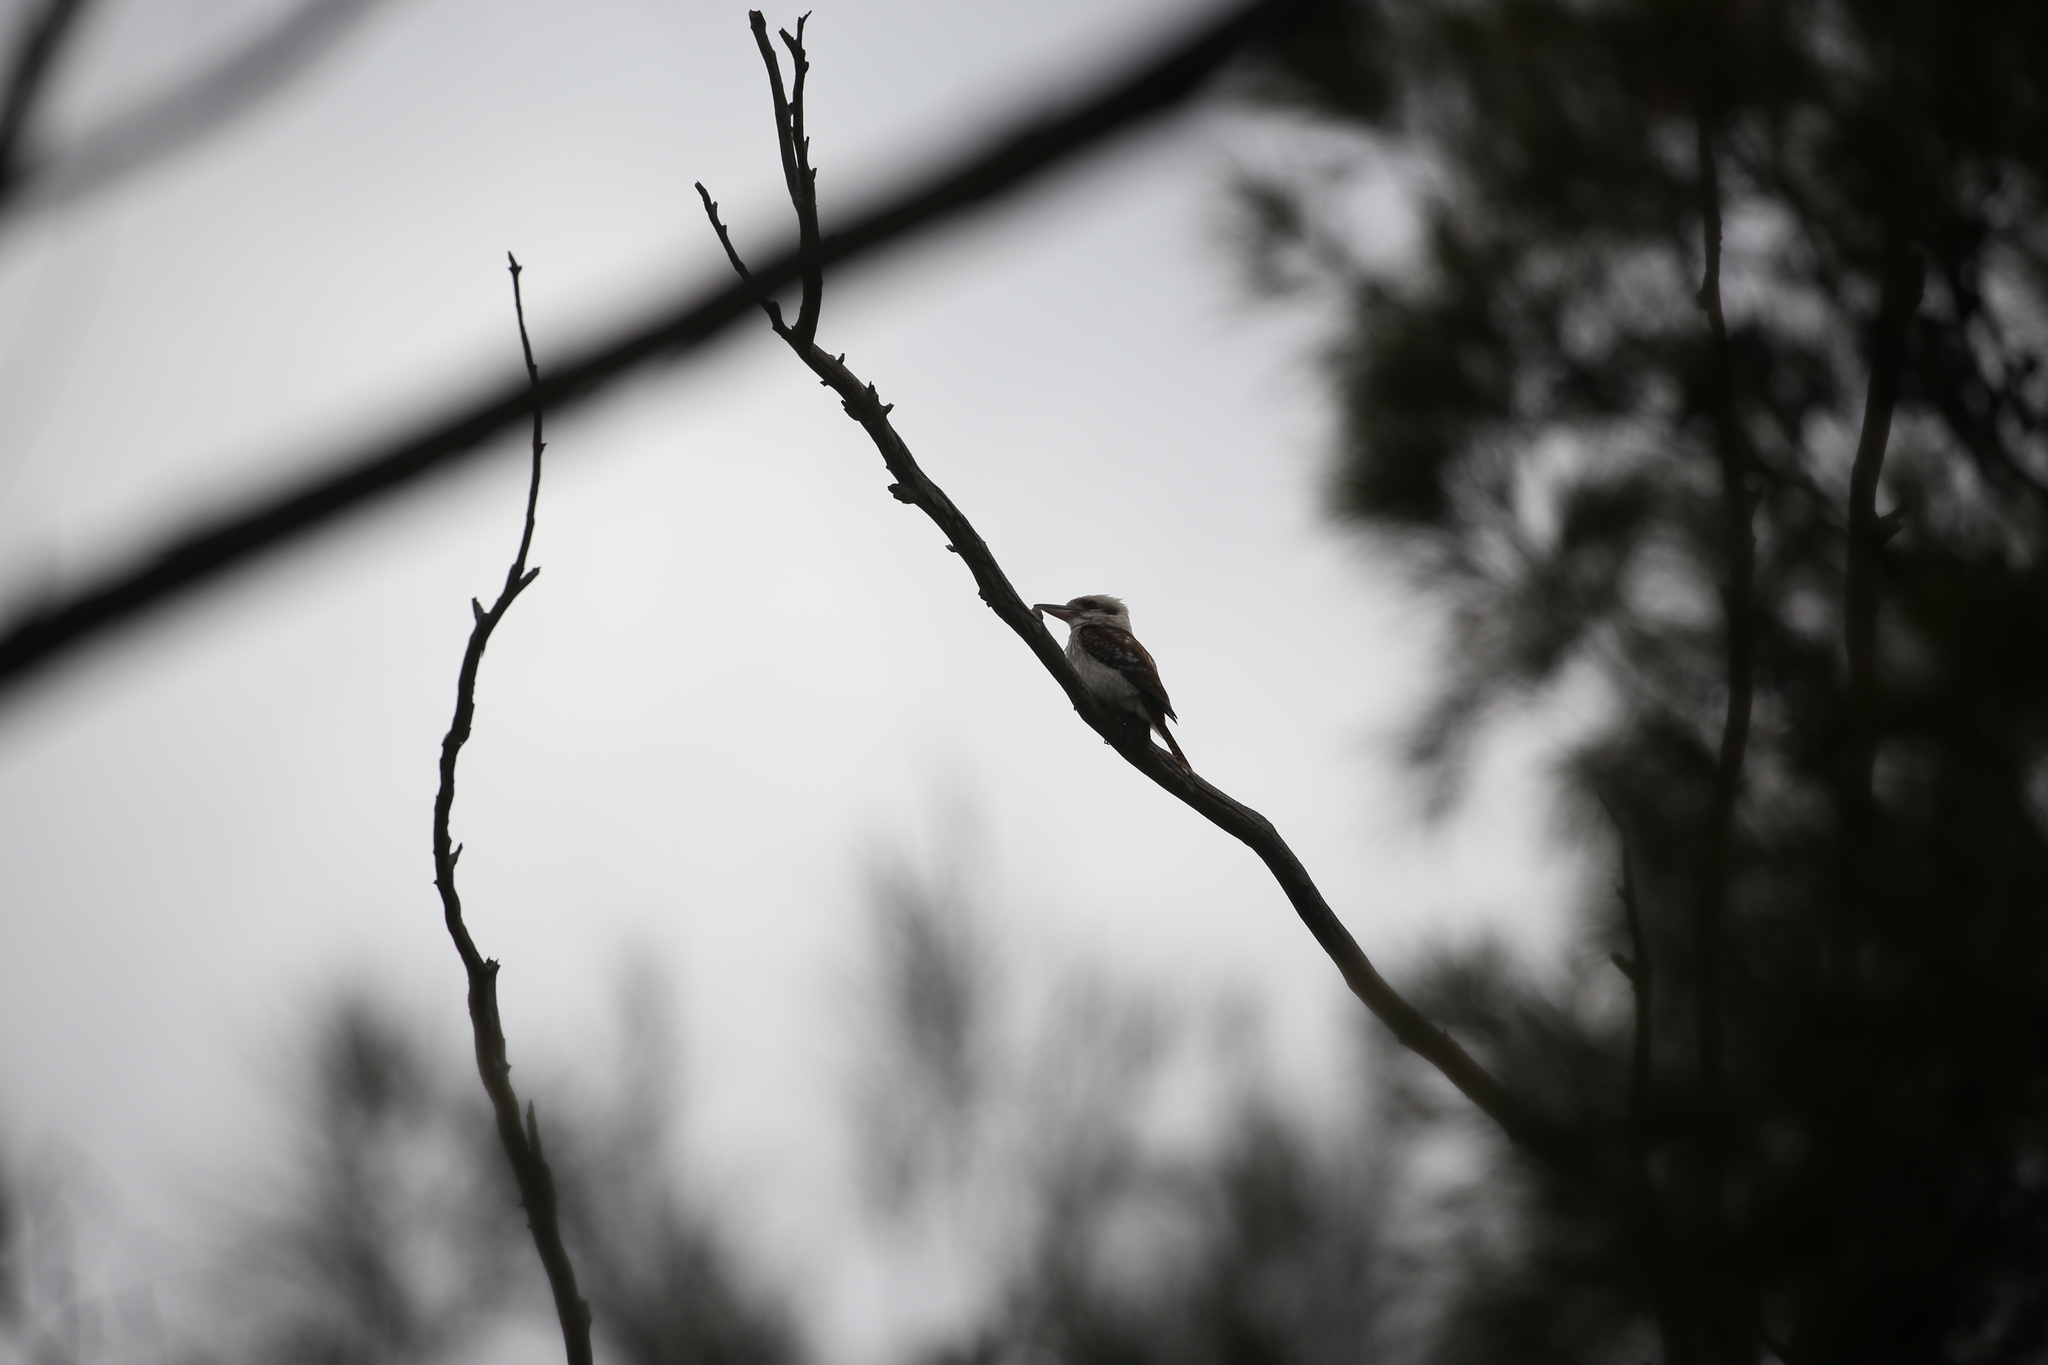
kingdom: Animalia
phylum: Chordata
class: Aves
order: Coraciiformes
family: Alcedinidae
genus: Dacelo
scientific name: Dacelo novaeguineae
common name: Laughing kookaburra
